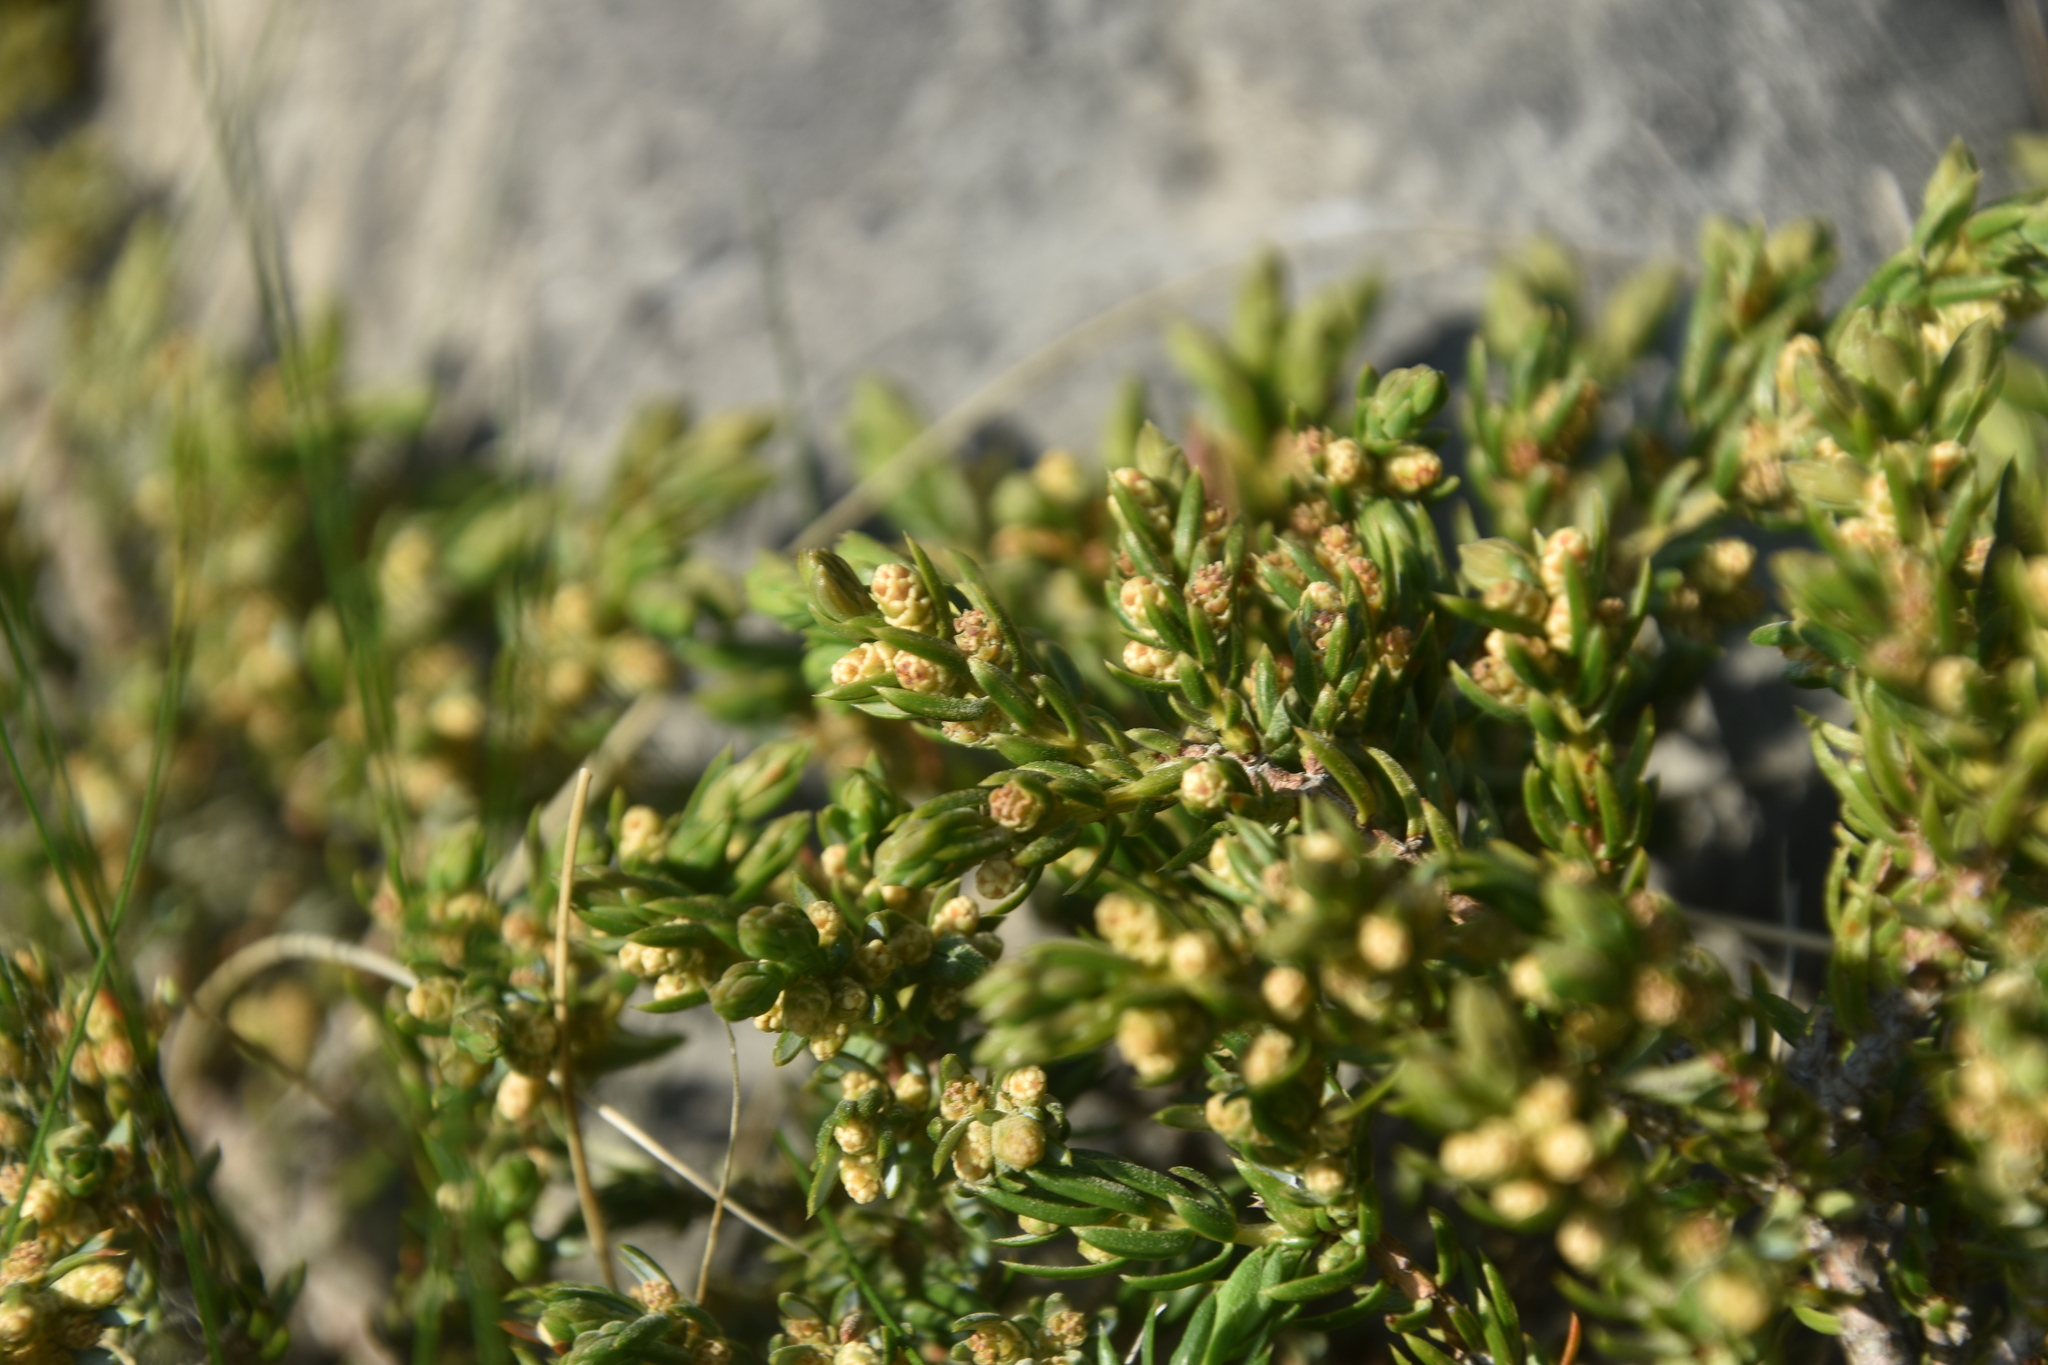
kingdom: Plantae
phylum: Tracheophyta
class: Pinopsida
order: Pinales
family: Cupressaceae
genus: Juniperus
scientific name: Juniperus communis
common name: Common juniper
